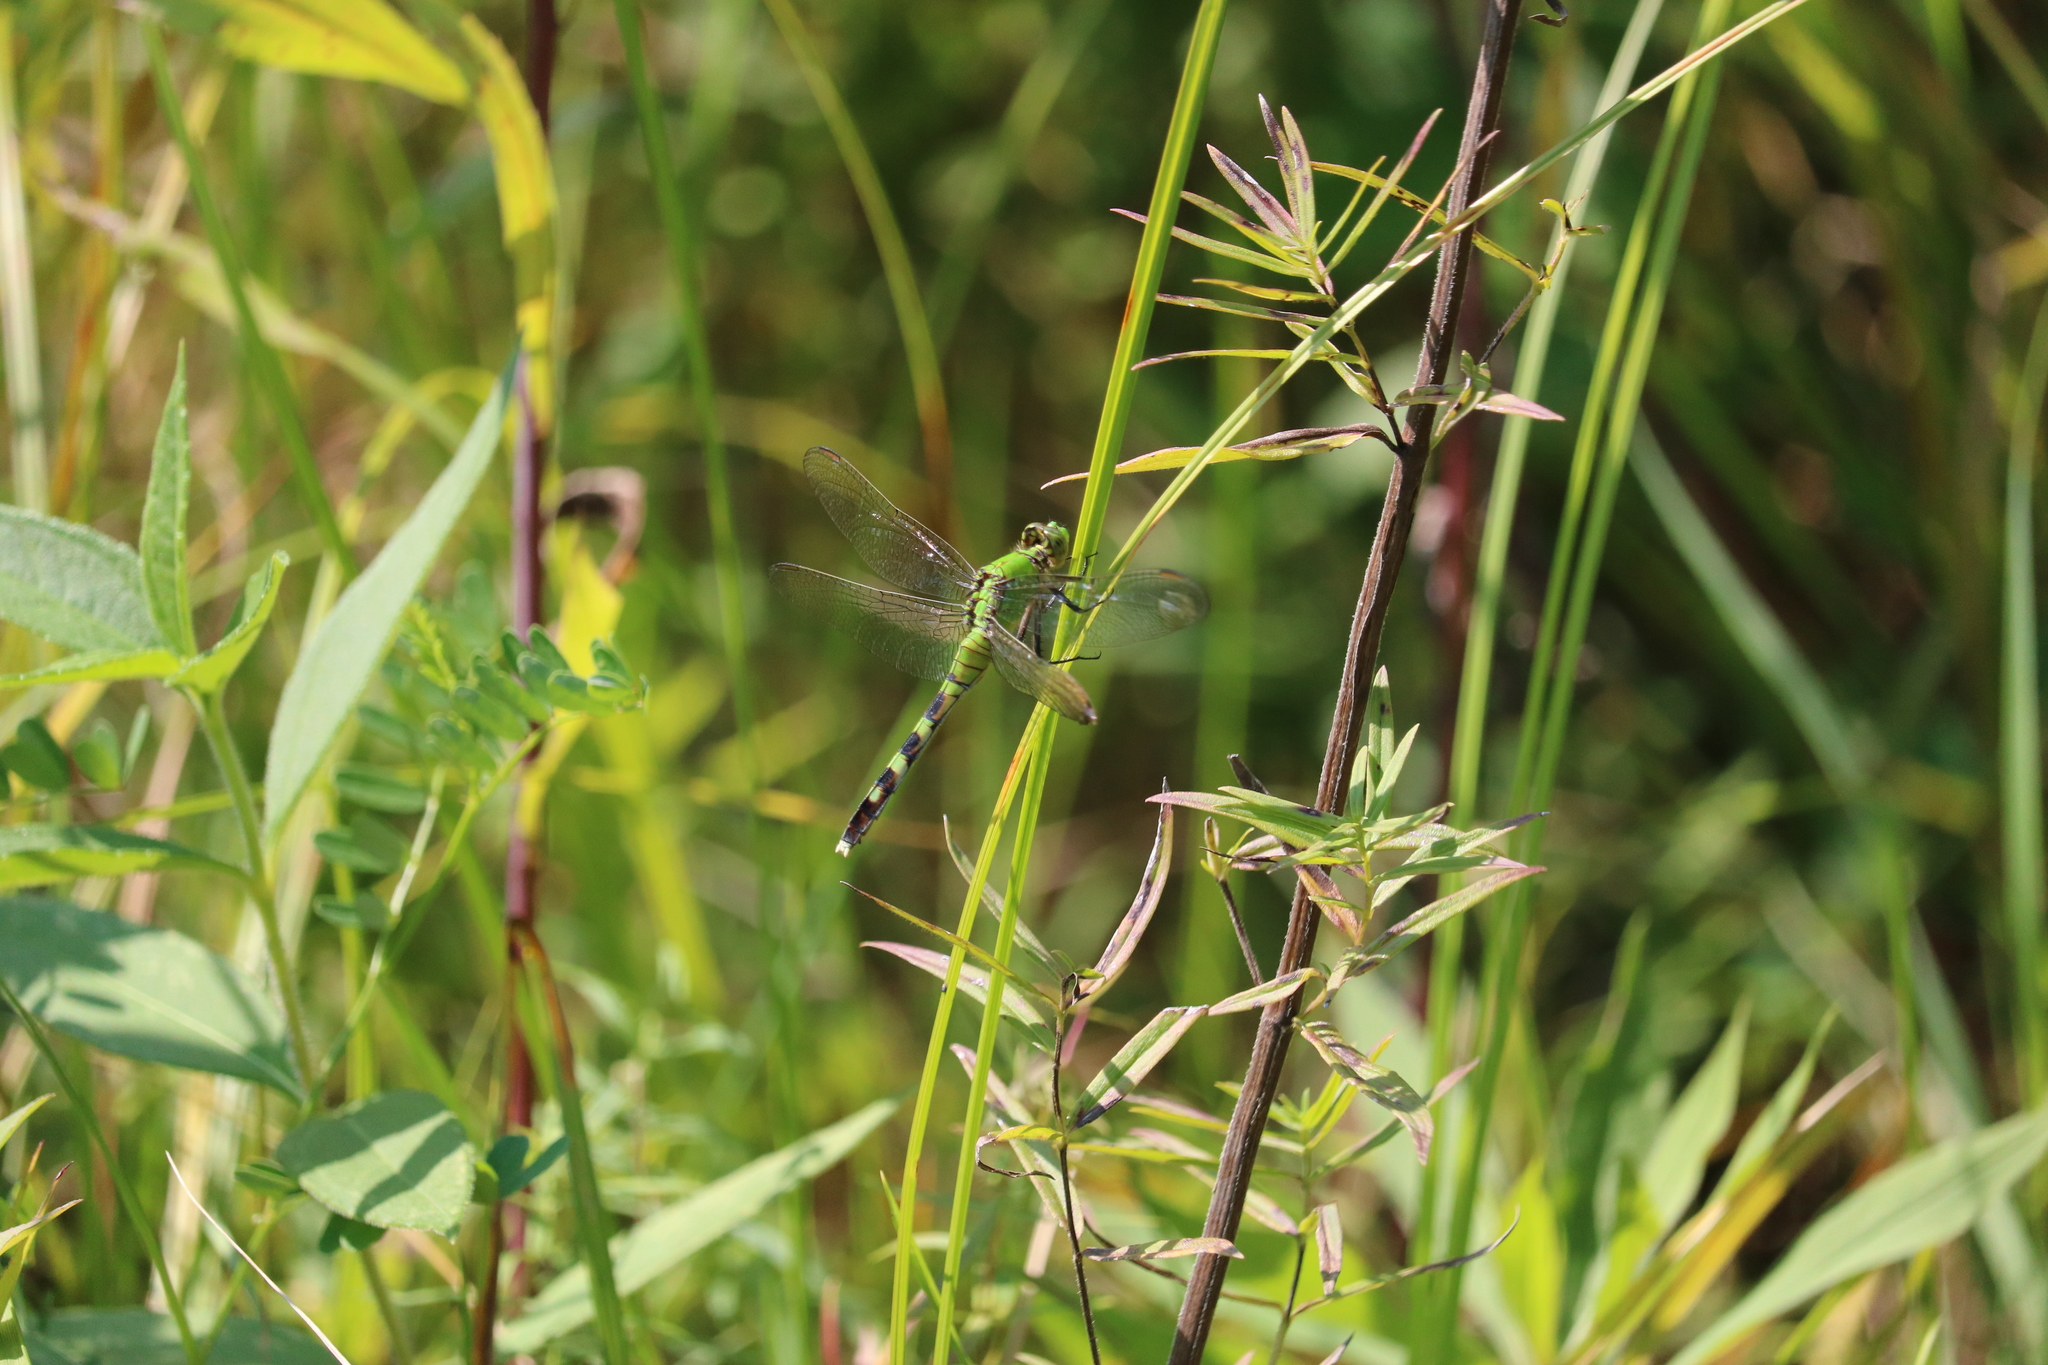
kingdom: Animalia
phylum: Arthropoda
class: Insecta
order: Odonata
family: Libellulidae
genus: Erythemis
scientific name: Erythemis simplicicollis
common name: Eastern pondhawk
